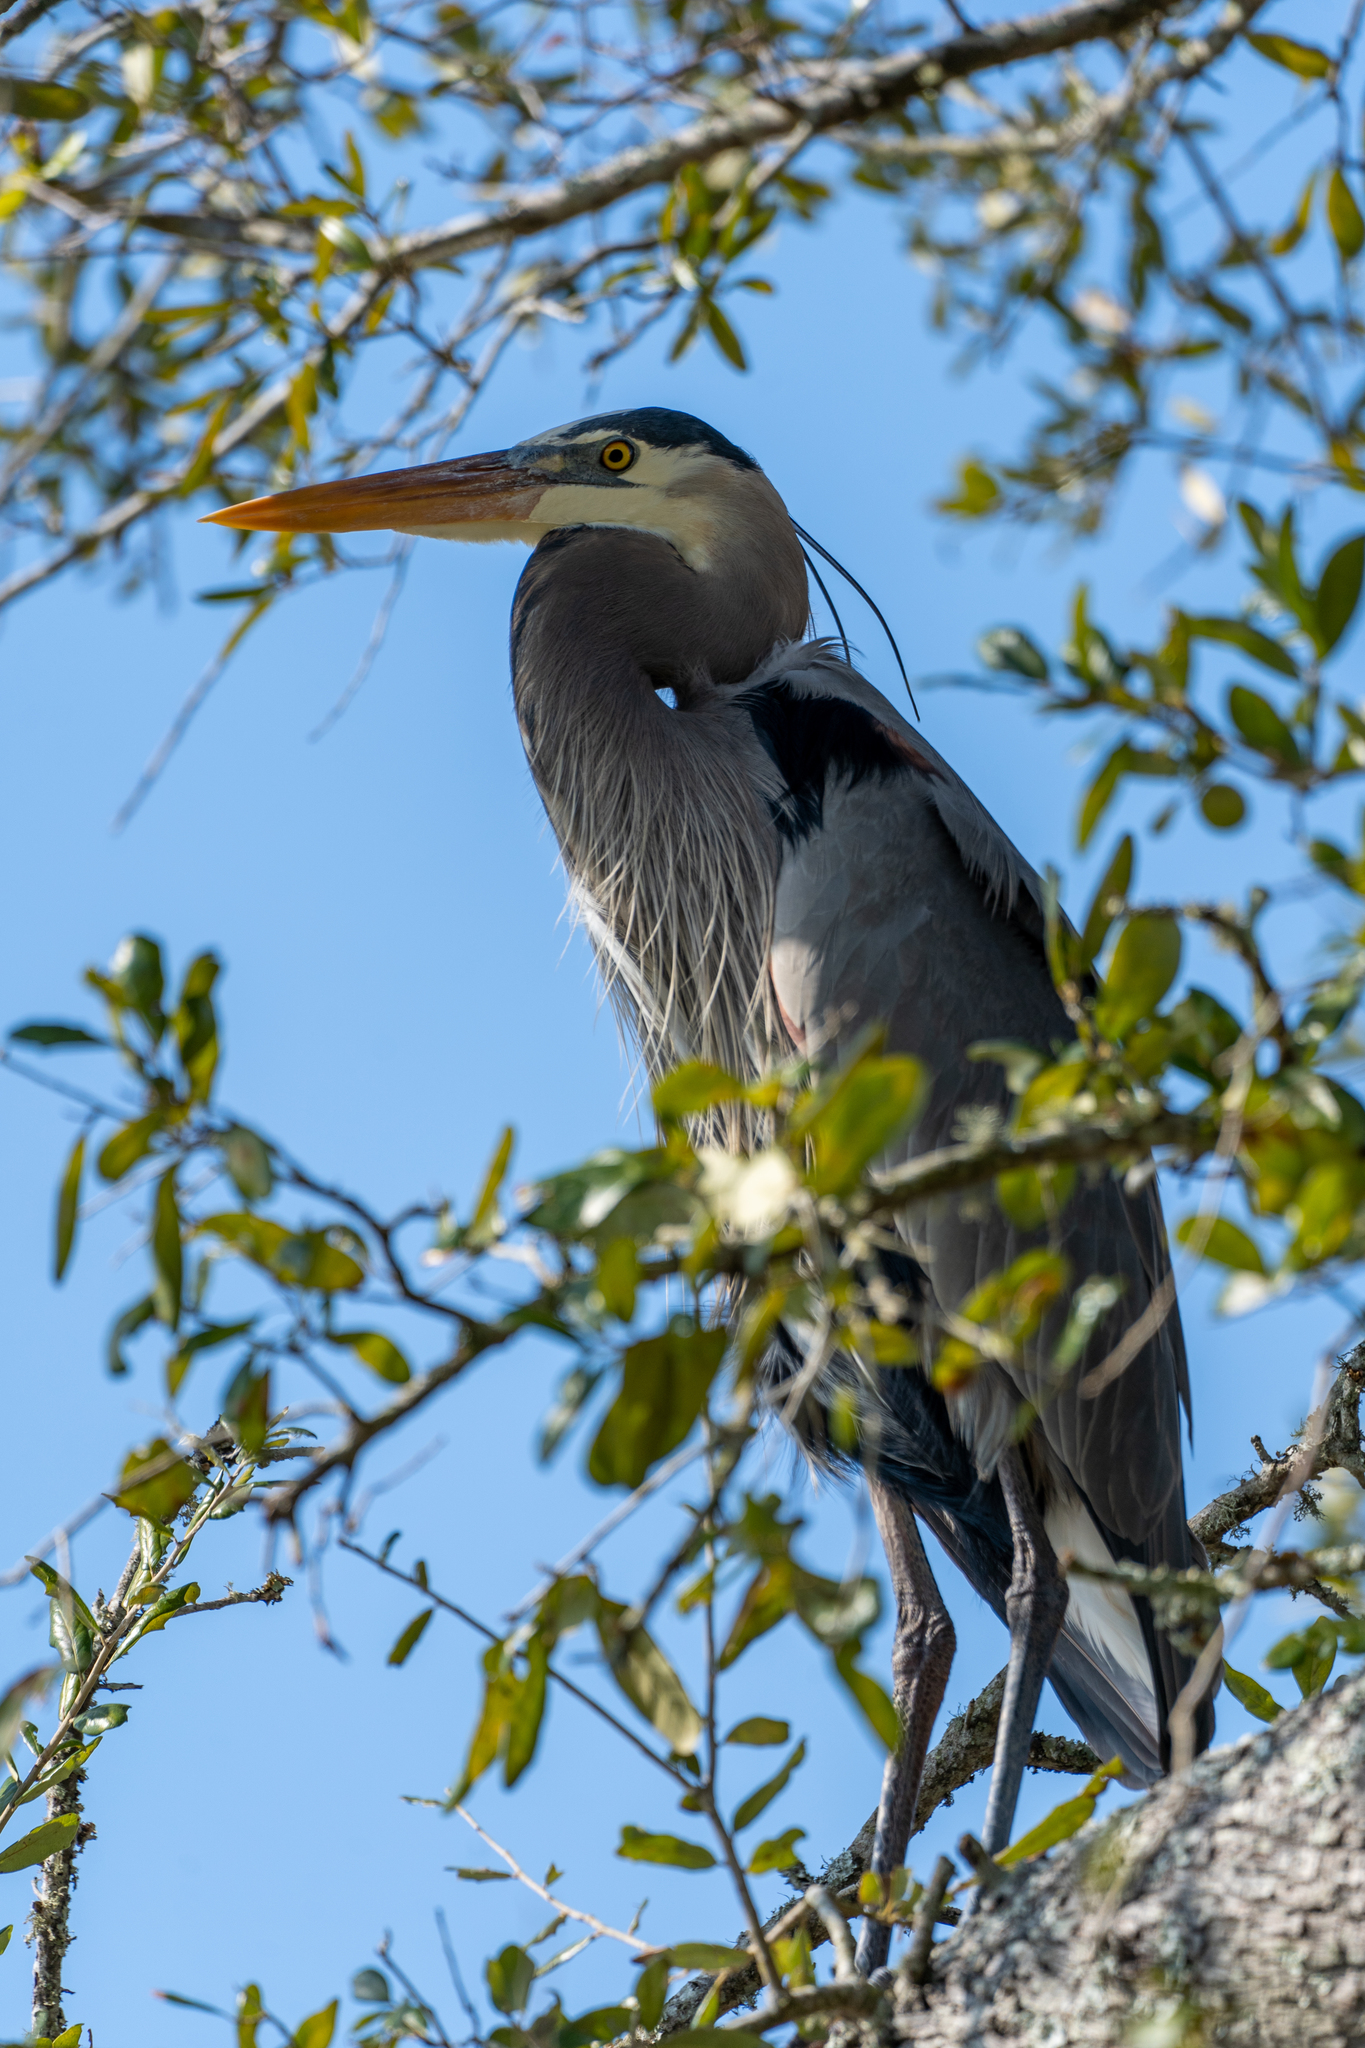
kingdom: Animalia
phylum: Chordata
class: Aves
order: Pelecaniformes
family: Ardeidae
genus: Ardea
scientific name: Ardea herodias
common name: Great blue heron
